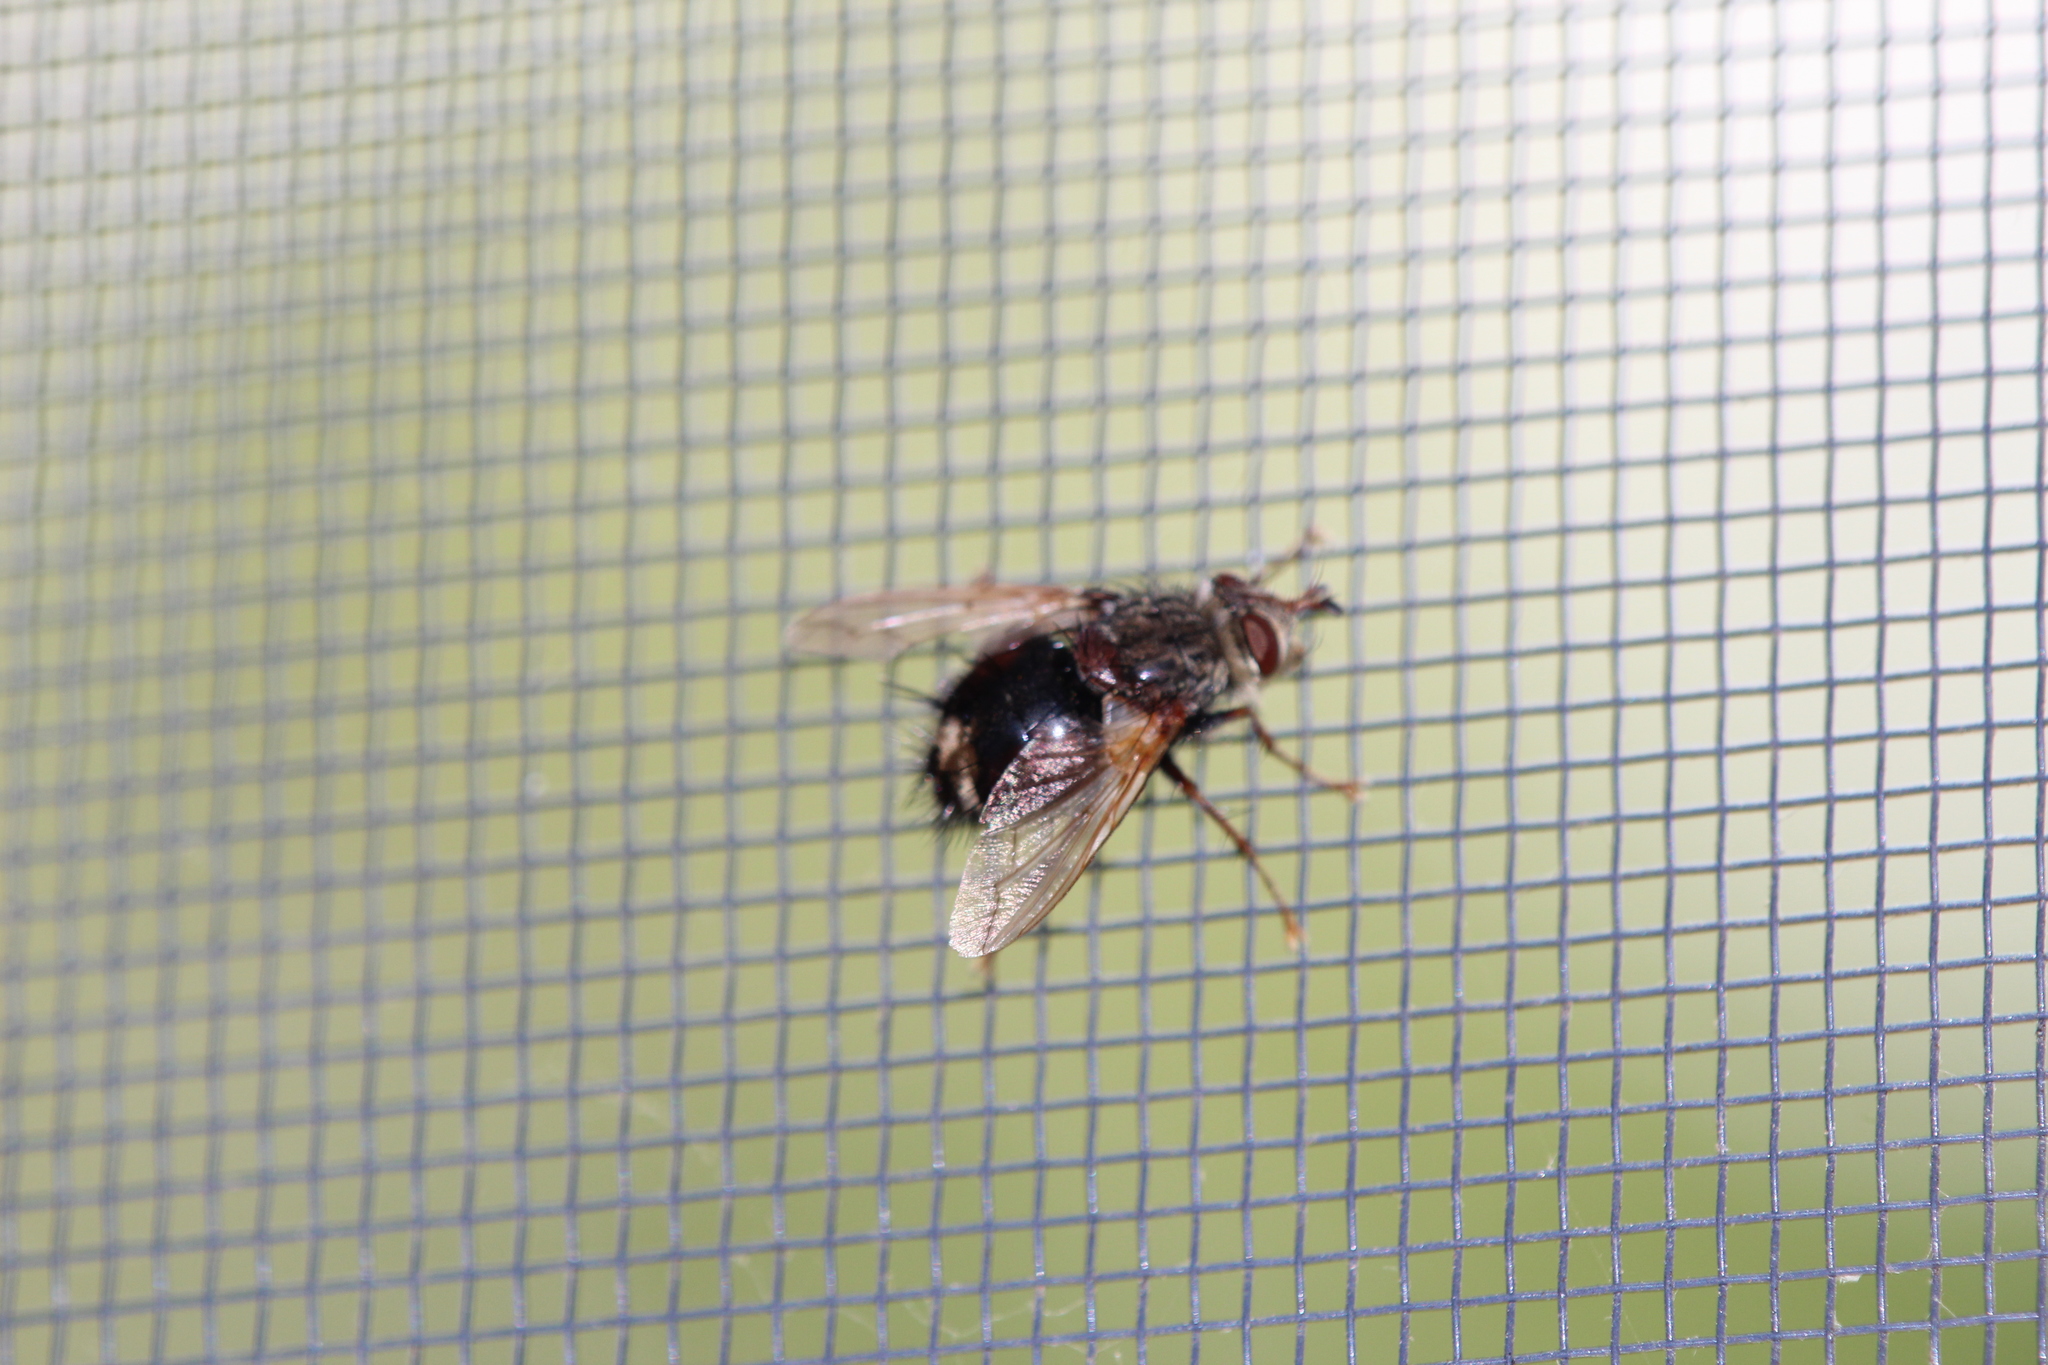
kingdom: Animalia
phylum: Arthropoda
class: Insecta
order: Diptera
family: Tachinidae
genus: Epalpus
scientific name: Epalpus signifer
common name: Early tachinid fly
